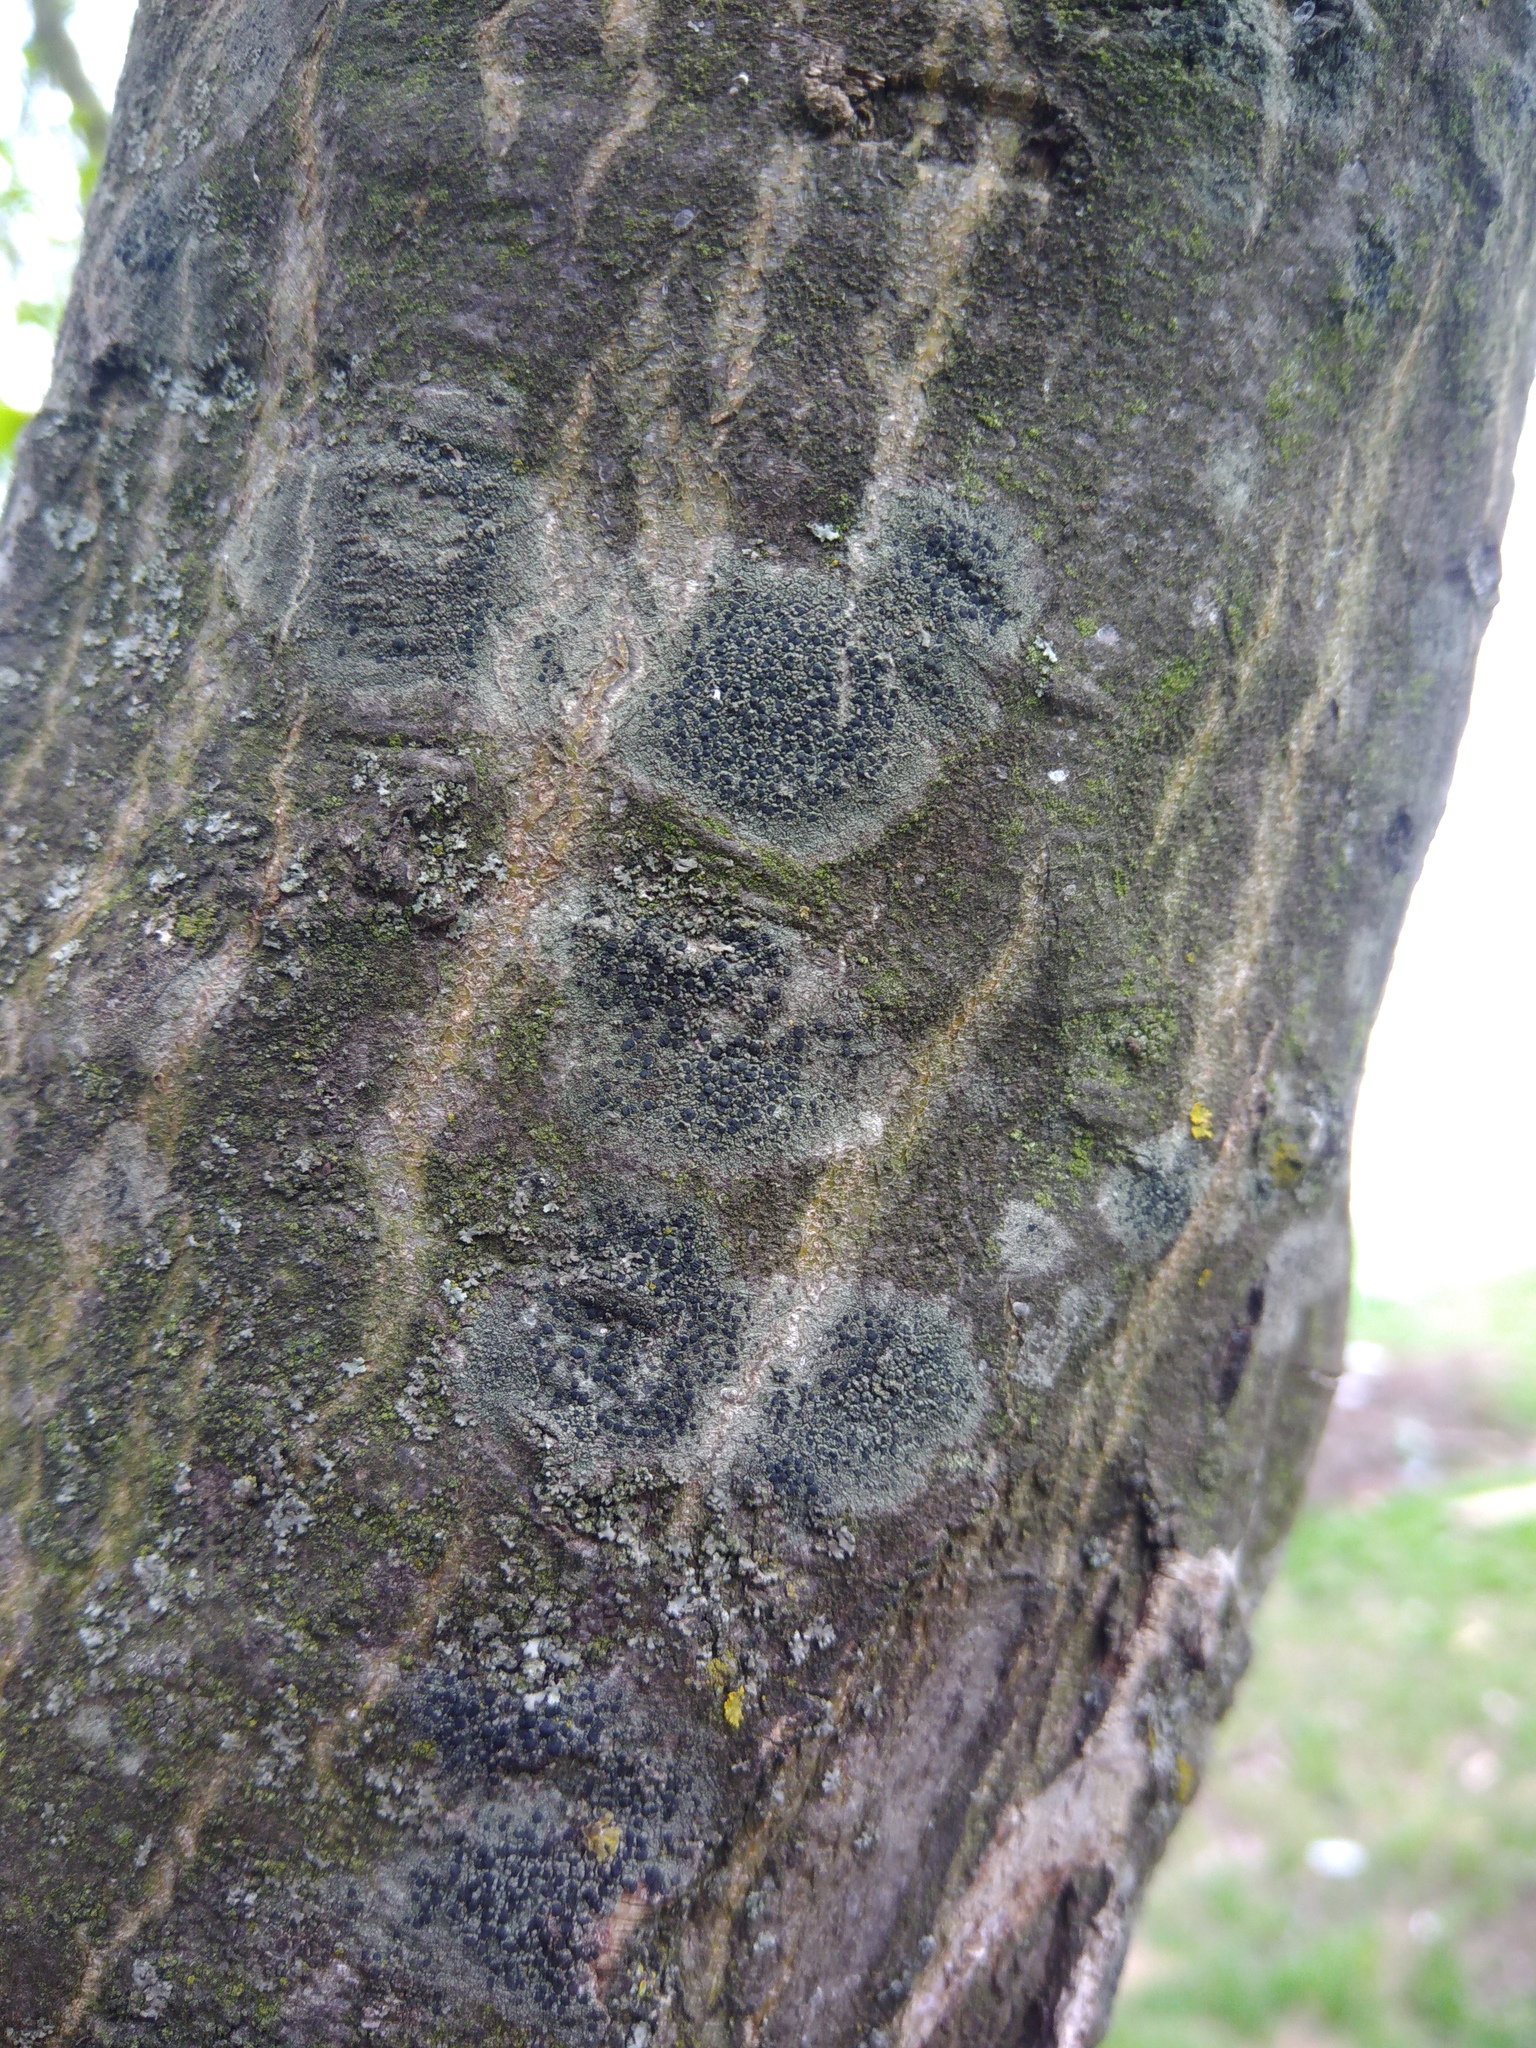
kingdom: Fungi
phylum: Ascomycota
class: Lecanoromycetes
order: Lecanorales
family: Lecanoraceae
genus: Lecidella
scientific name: Lecidella elaeochroma
